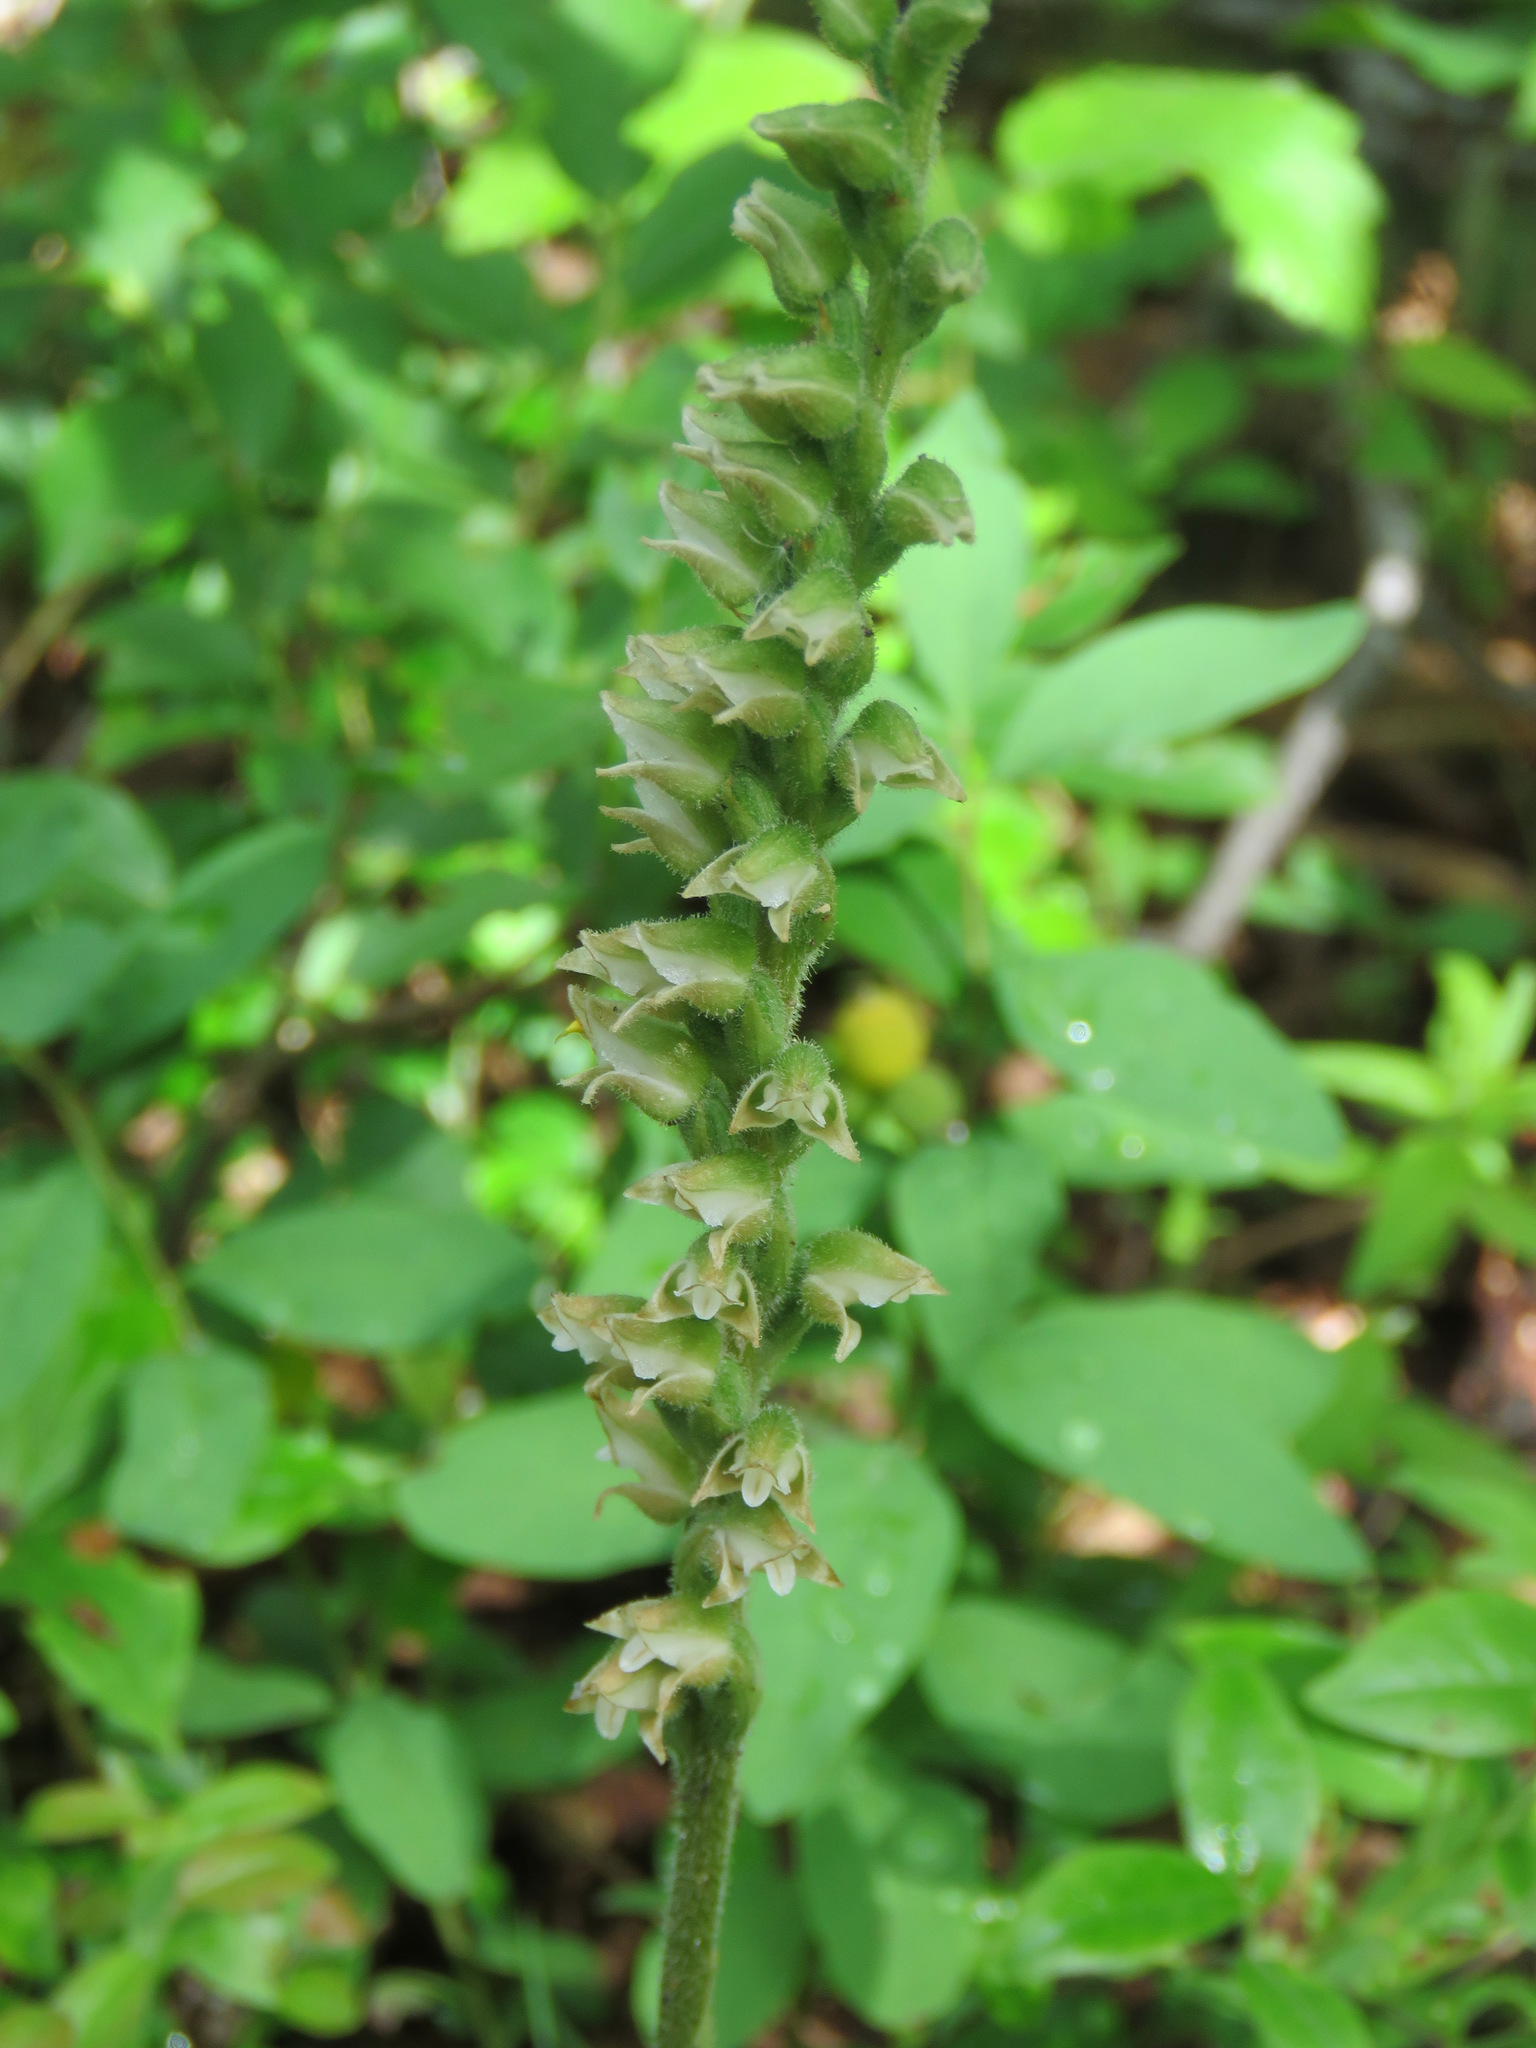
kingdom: Plantae
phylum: Tracheophyta
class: Liliopsida
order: Asparagales
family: Orchidaceae
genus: Goodyera
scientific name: Goodyera oblongifolia
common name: Giant rattlesnake-plantain
